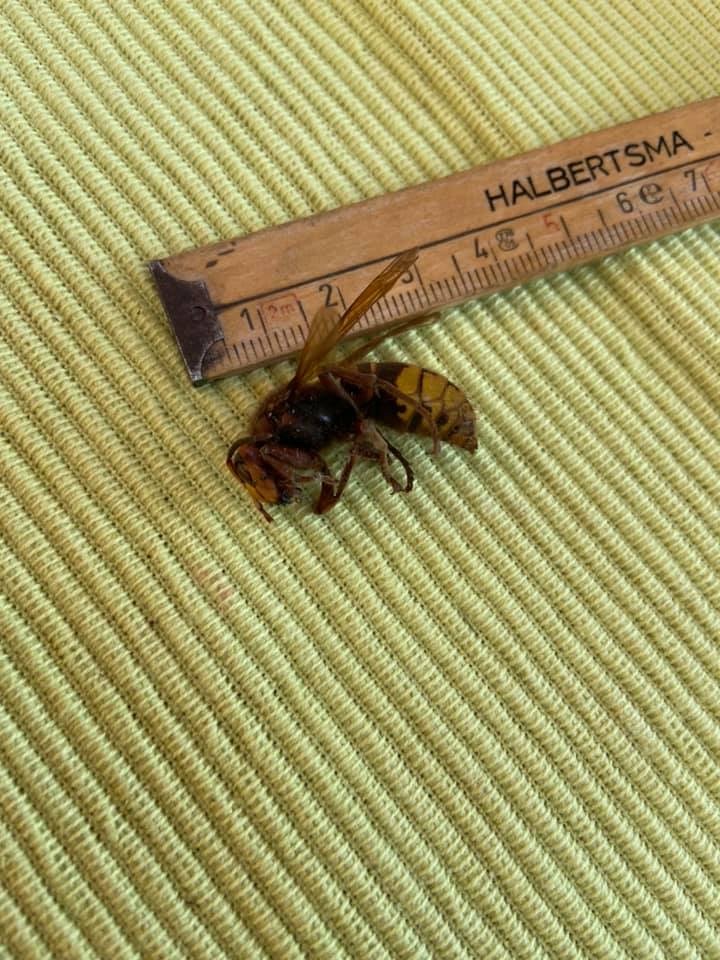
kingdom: Animalia
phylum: Arthropoda
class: Insecta
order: Hymenoptera
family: Vespidae
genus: Vespa
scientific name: Vespa crabro
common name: Hornet
